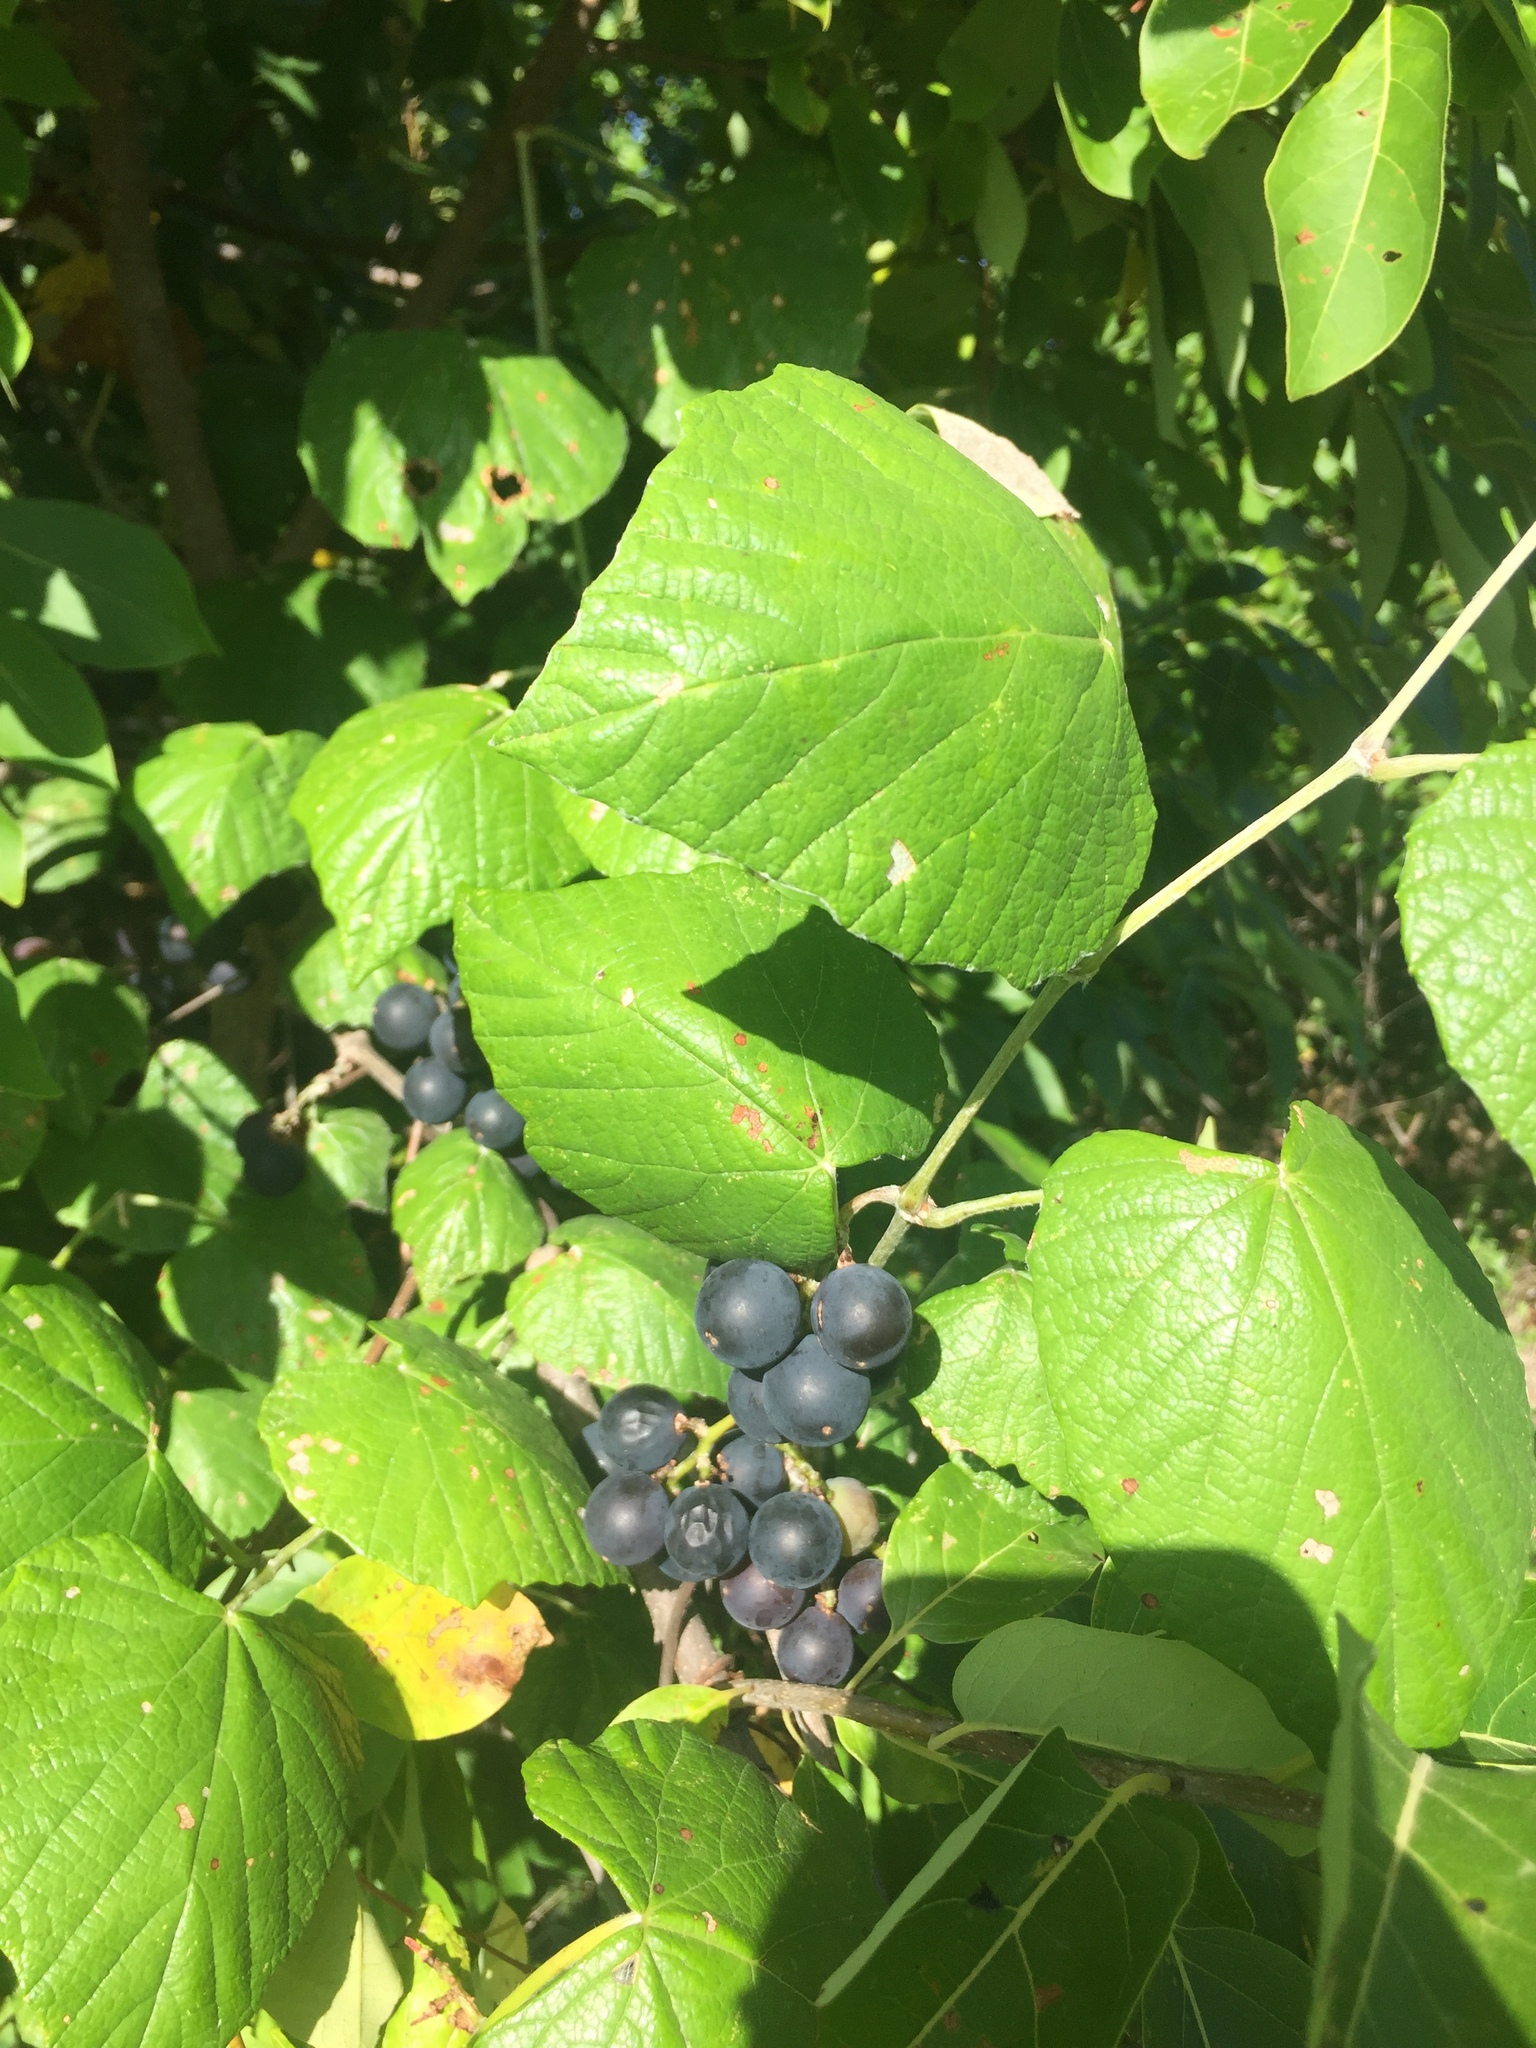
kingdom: Plantae
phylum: Tracheophyta
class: Magnoliopsida
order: Vitales
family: Vitaceae
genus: Vitis
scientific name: Vitis mustangensis
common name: Mustang grape
